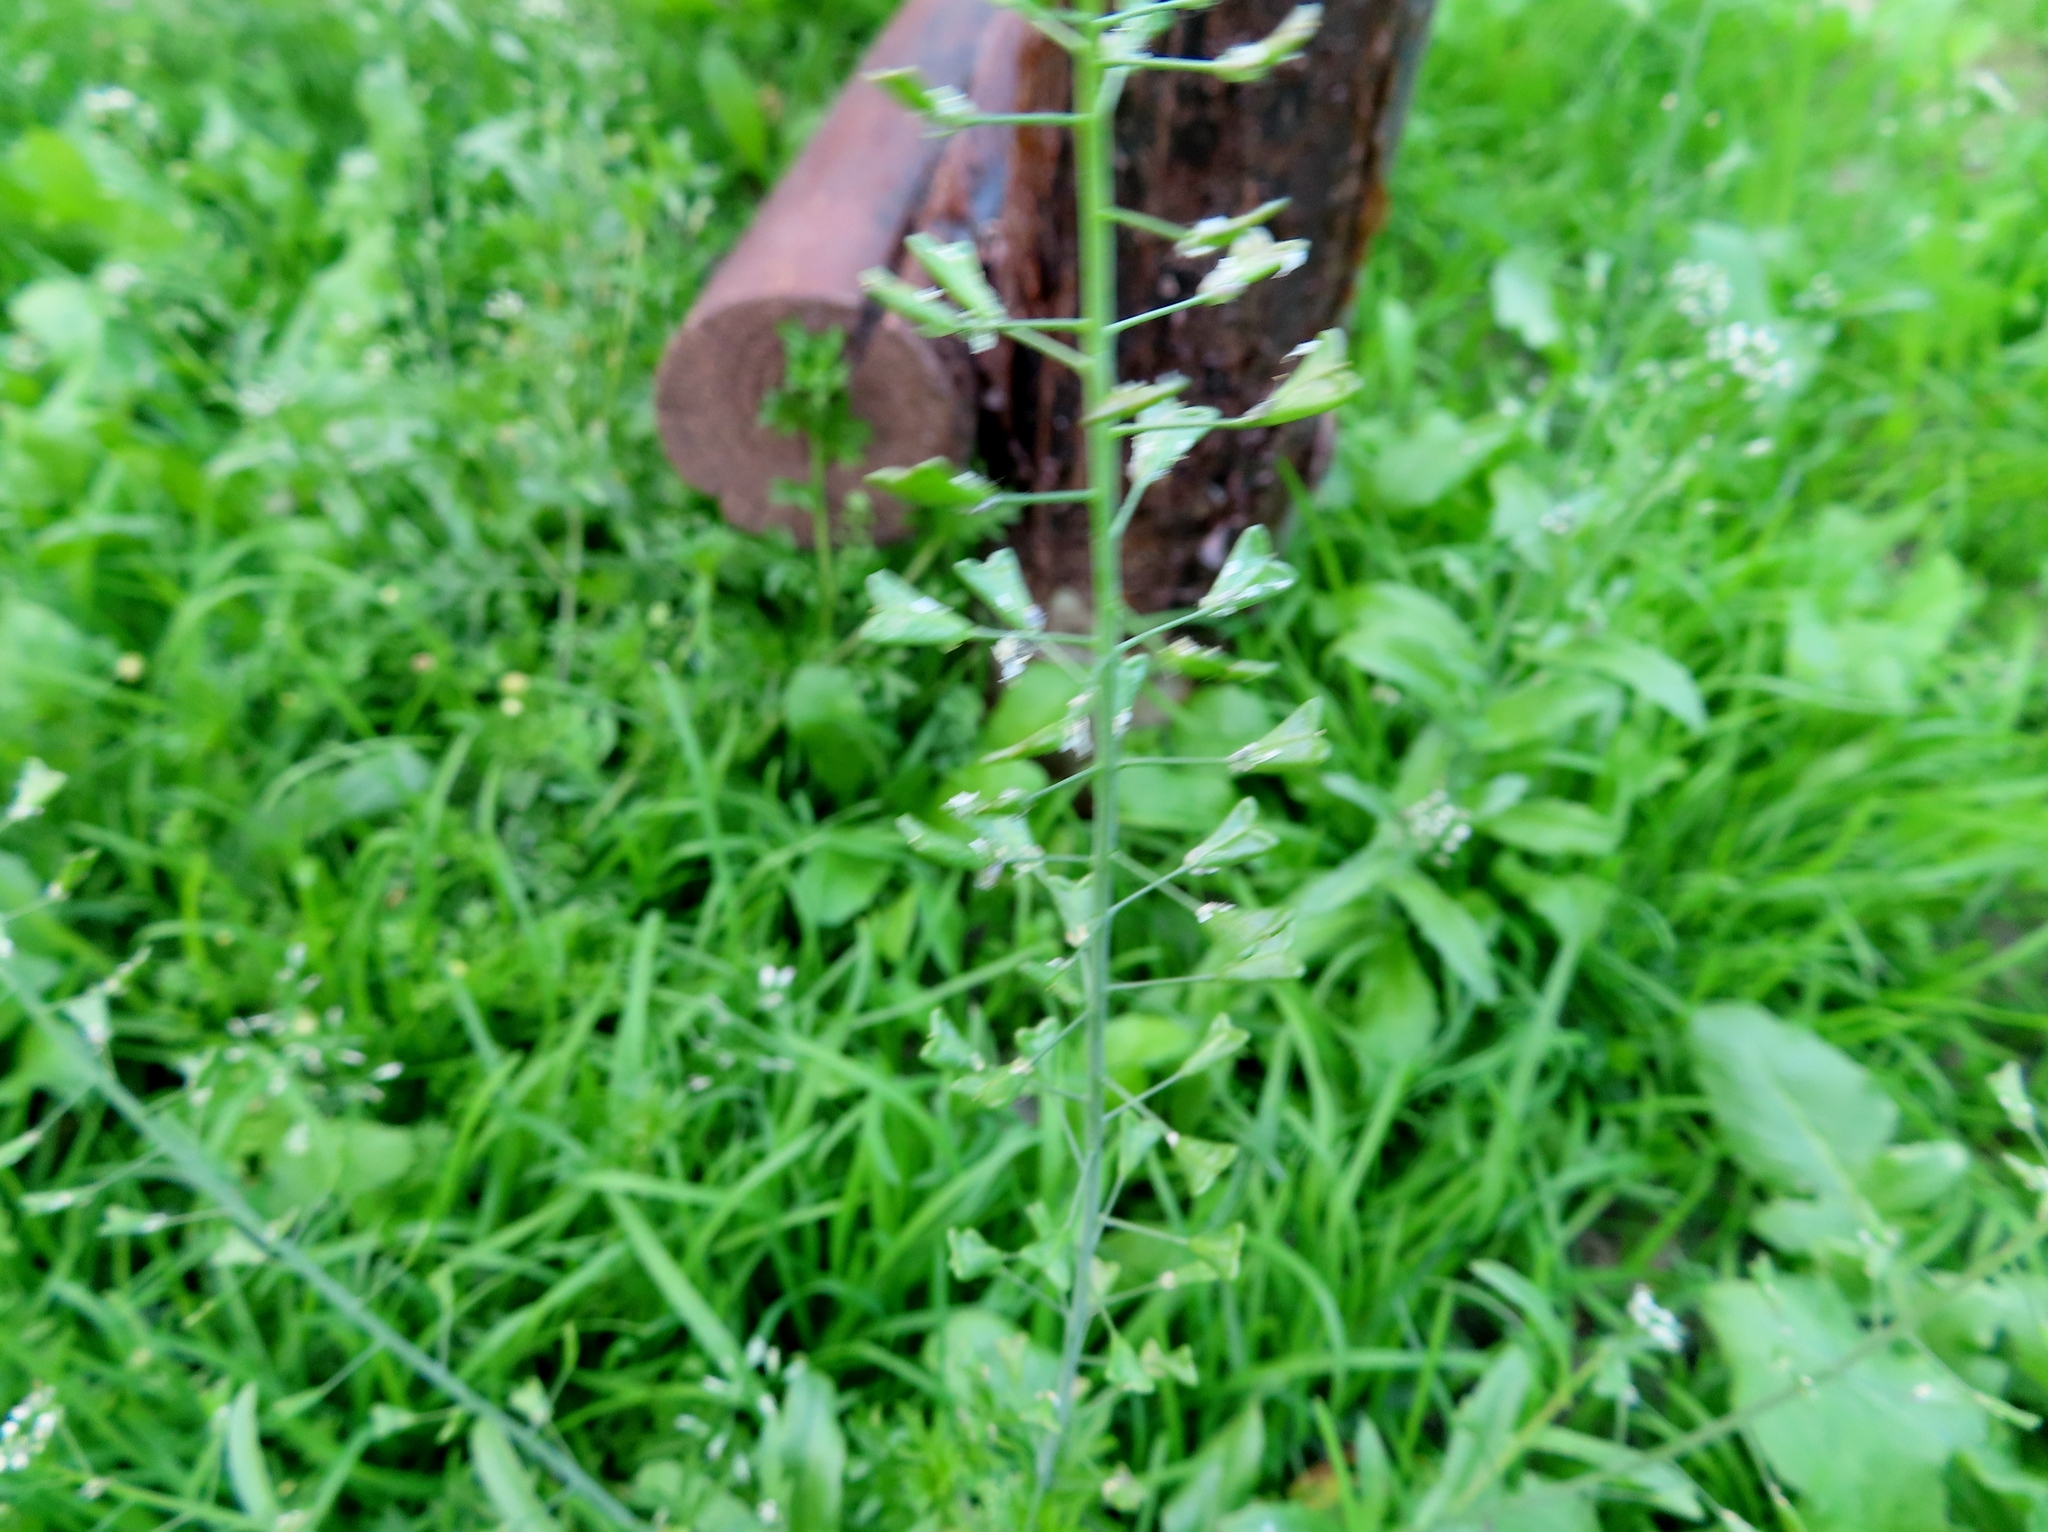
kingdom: Plantae
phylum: Tracheophyta
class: Magnoliopsida
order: Brassicales
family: Brassicaceae
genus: Capsella
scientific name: Capsella bursa-pastoris
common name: Shepherd's purse
